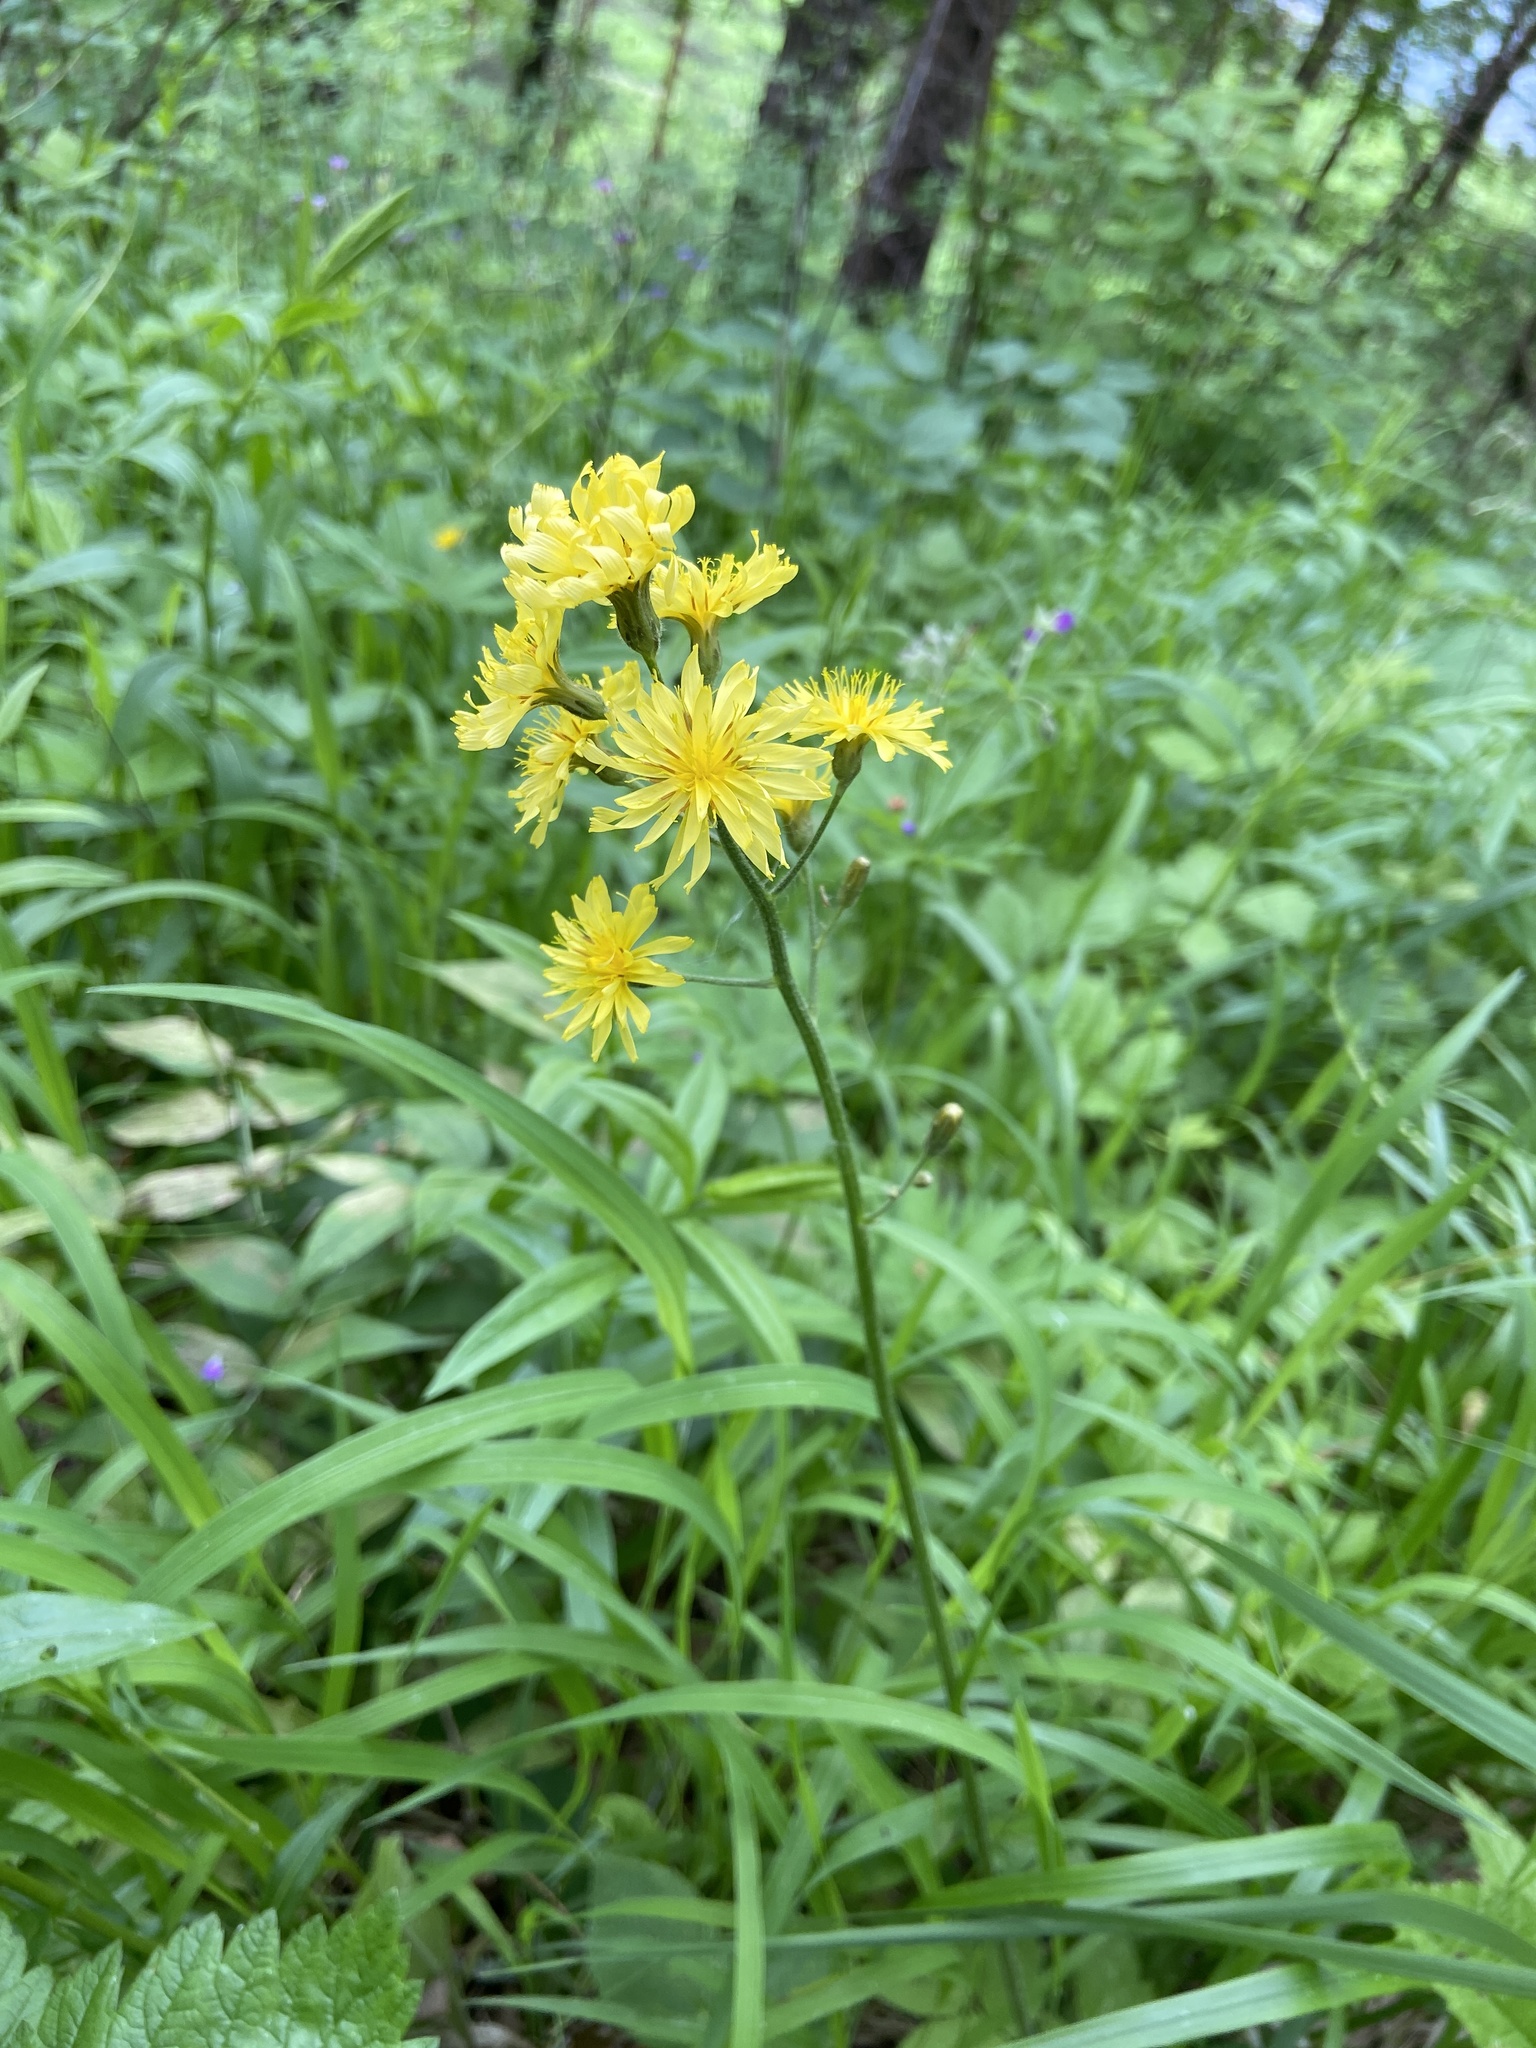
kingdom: Plantae
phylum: Tracheophyta
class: Magnoliopsida
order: Asterales
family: Asteraceae
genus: Crepis
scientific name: Crepis praemorsa
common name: Leafless hawk's-beard
